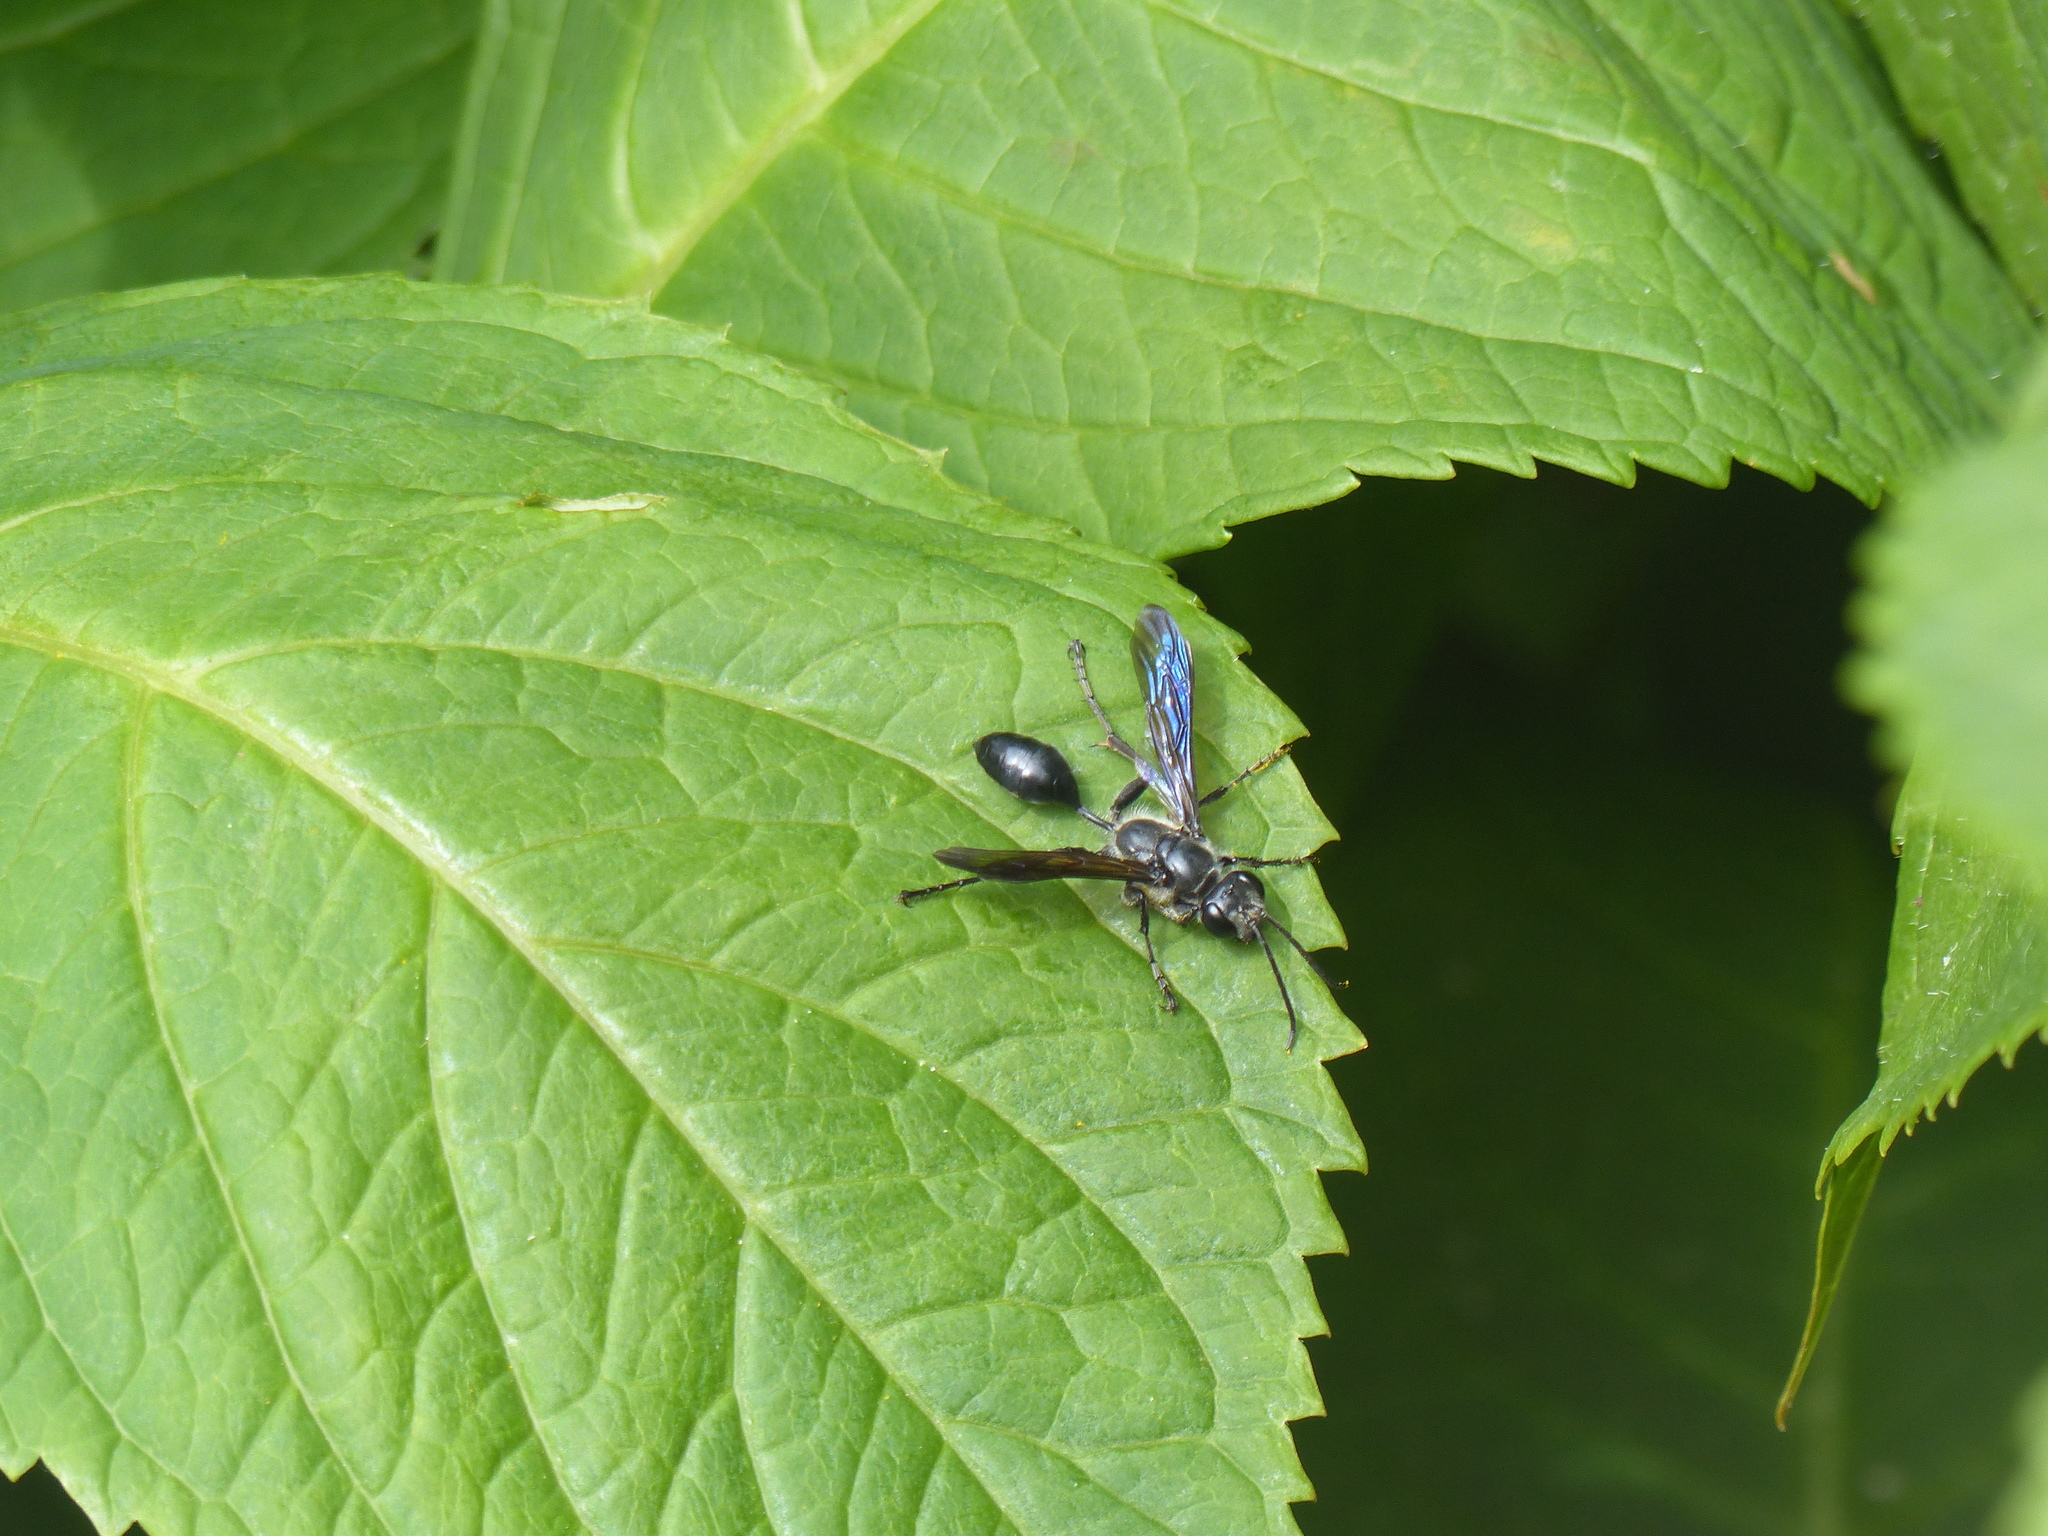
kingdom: Animalia
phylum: Arthropoda
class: Insecta
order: Hymenoptera
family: Sphecidae
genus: Isodontia
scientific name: Isodontia mexicana
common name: Mud dauber
